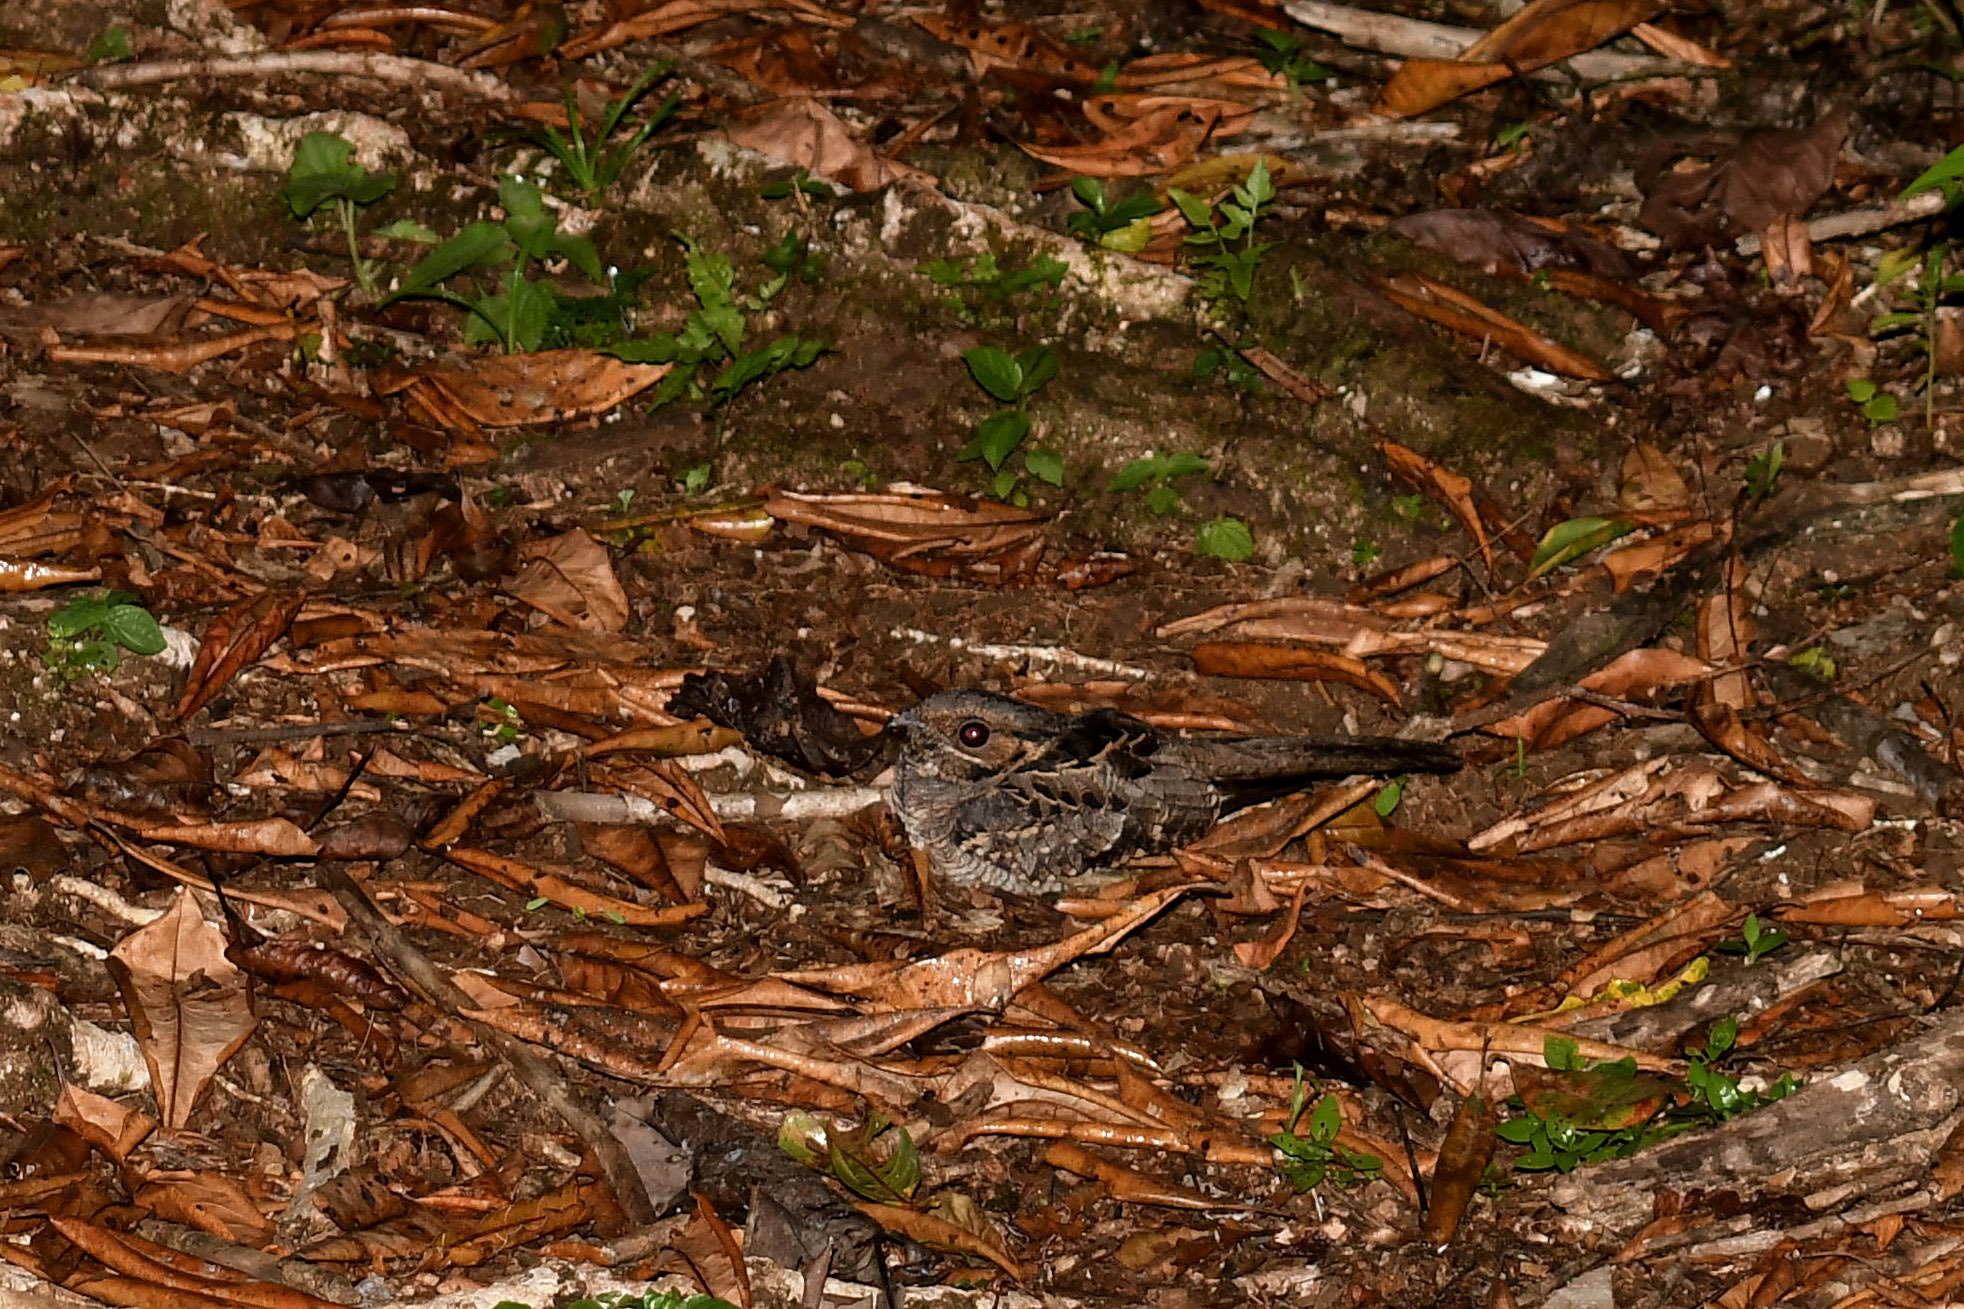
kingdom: Animalia
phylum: Chordata
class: Aves
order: Caprimulgiformes
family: Caprimulgidae
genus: Nyctidromus
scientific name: Nyctidromus albicollis
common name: Pauraque
